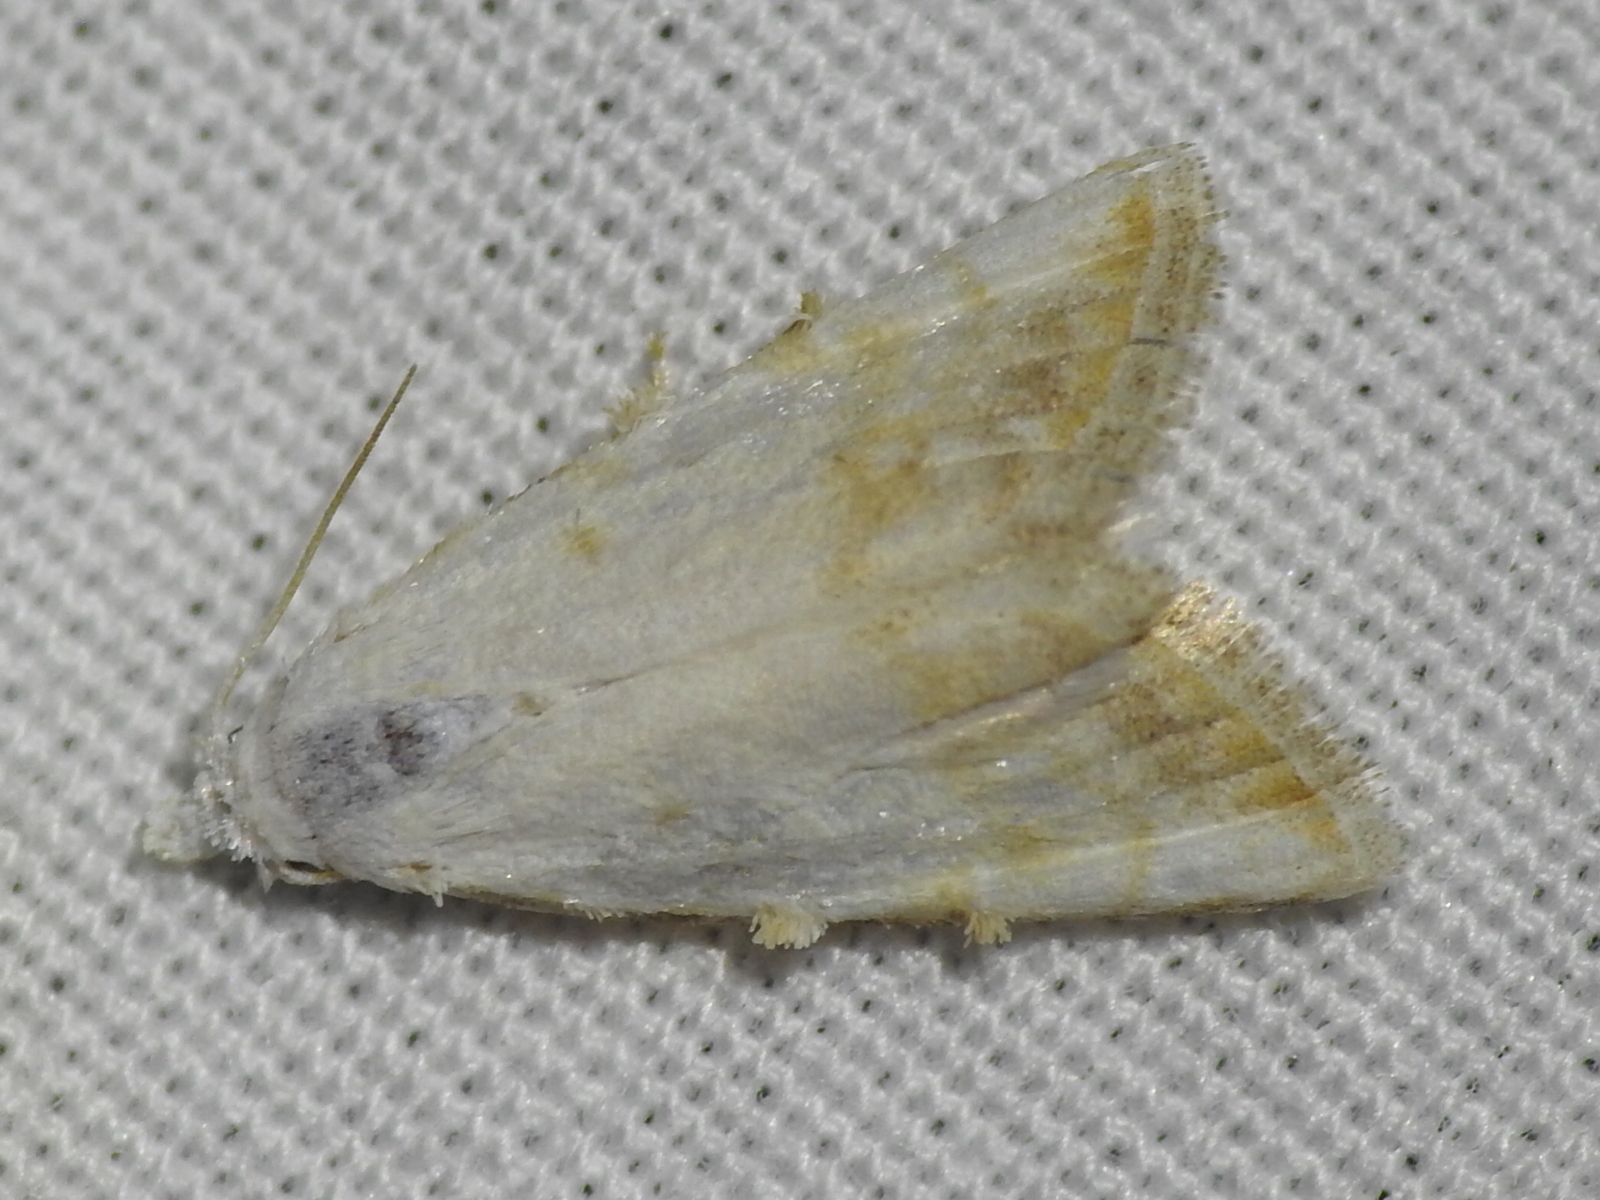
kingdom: Animalia
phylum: Arthropoda
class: Insecta
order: Lepidoptera
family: Nolidae
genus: Nola
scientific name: Nola cereella
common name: Sorghum webworm moth
